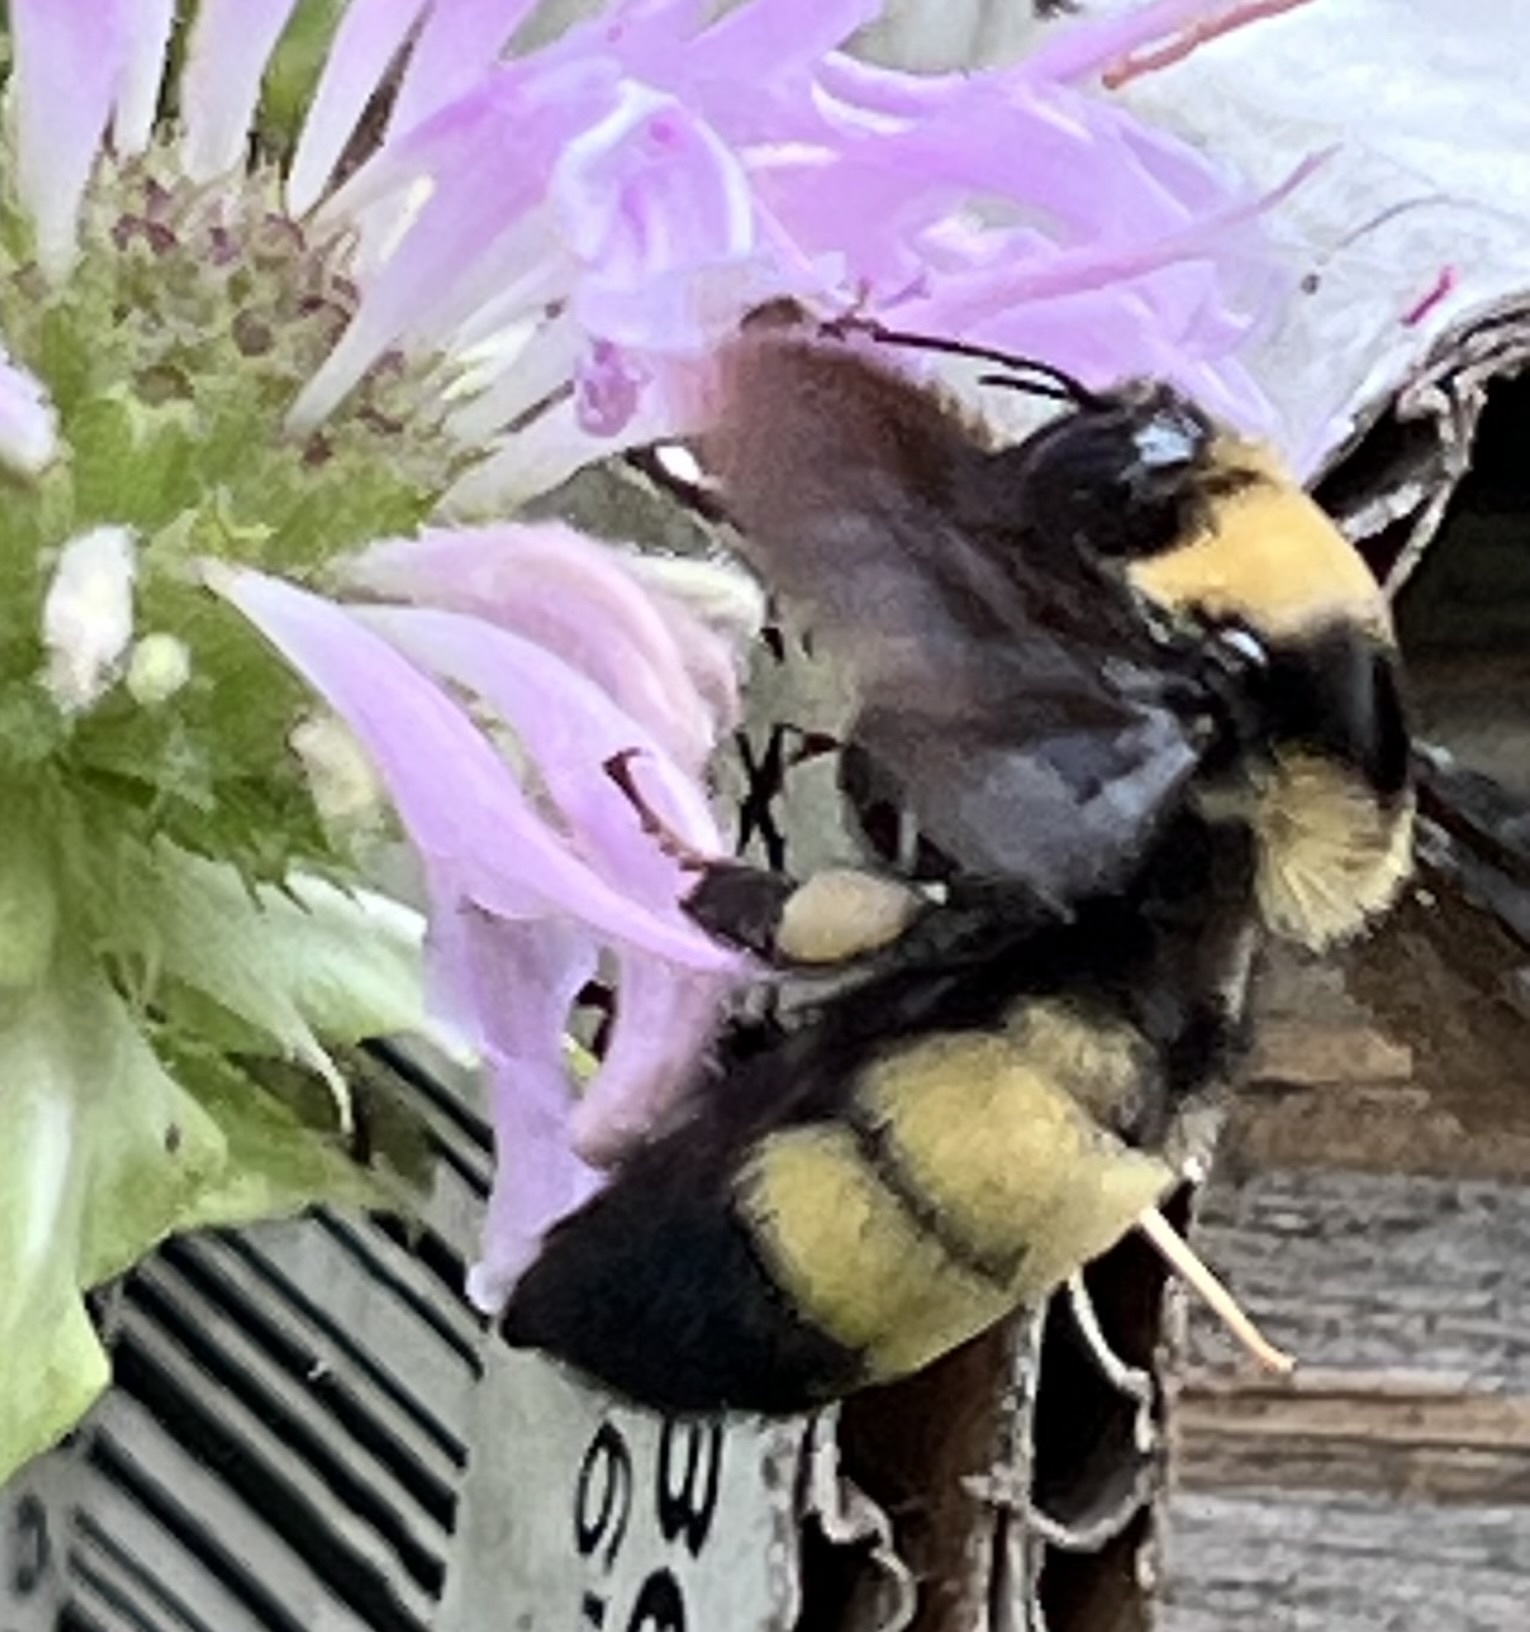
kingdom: Animalia
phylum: Arthropoda
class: Insecta
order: Hymenoptera
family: Apidae
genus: Bombus
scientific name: Bombus auricomus
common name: Black and gold bumble bee
